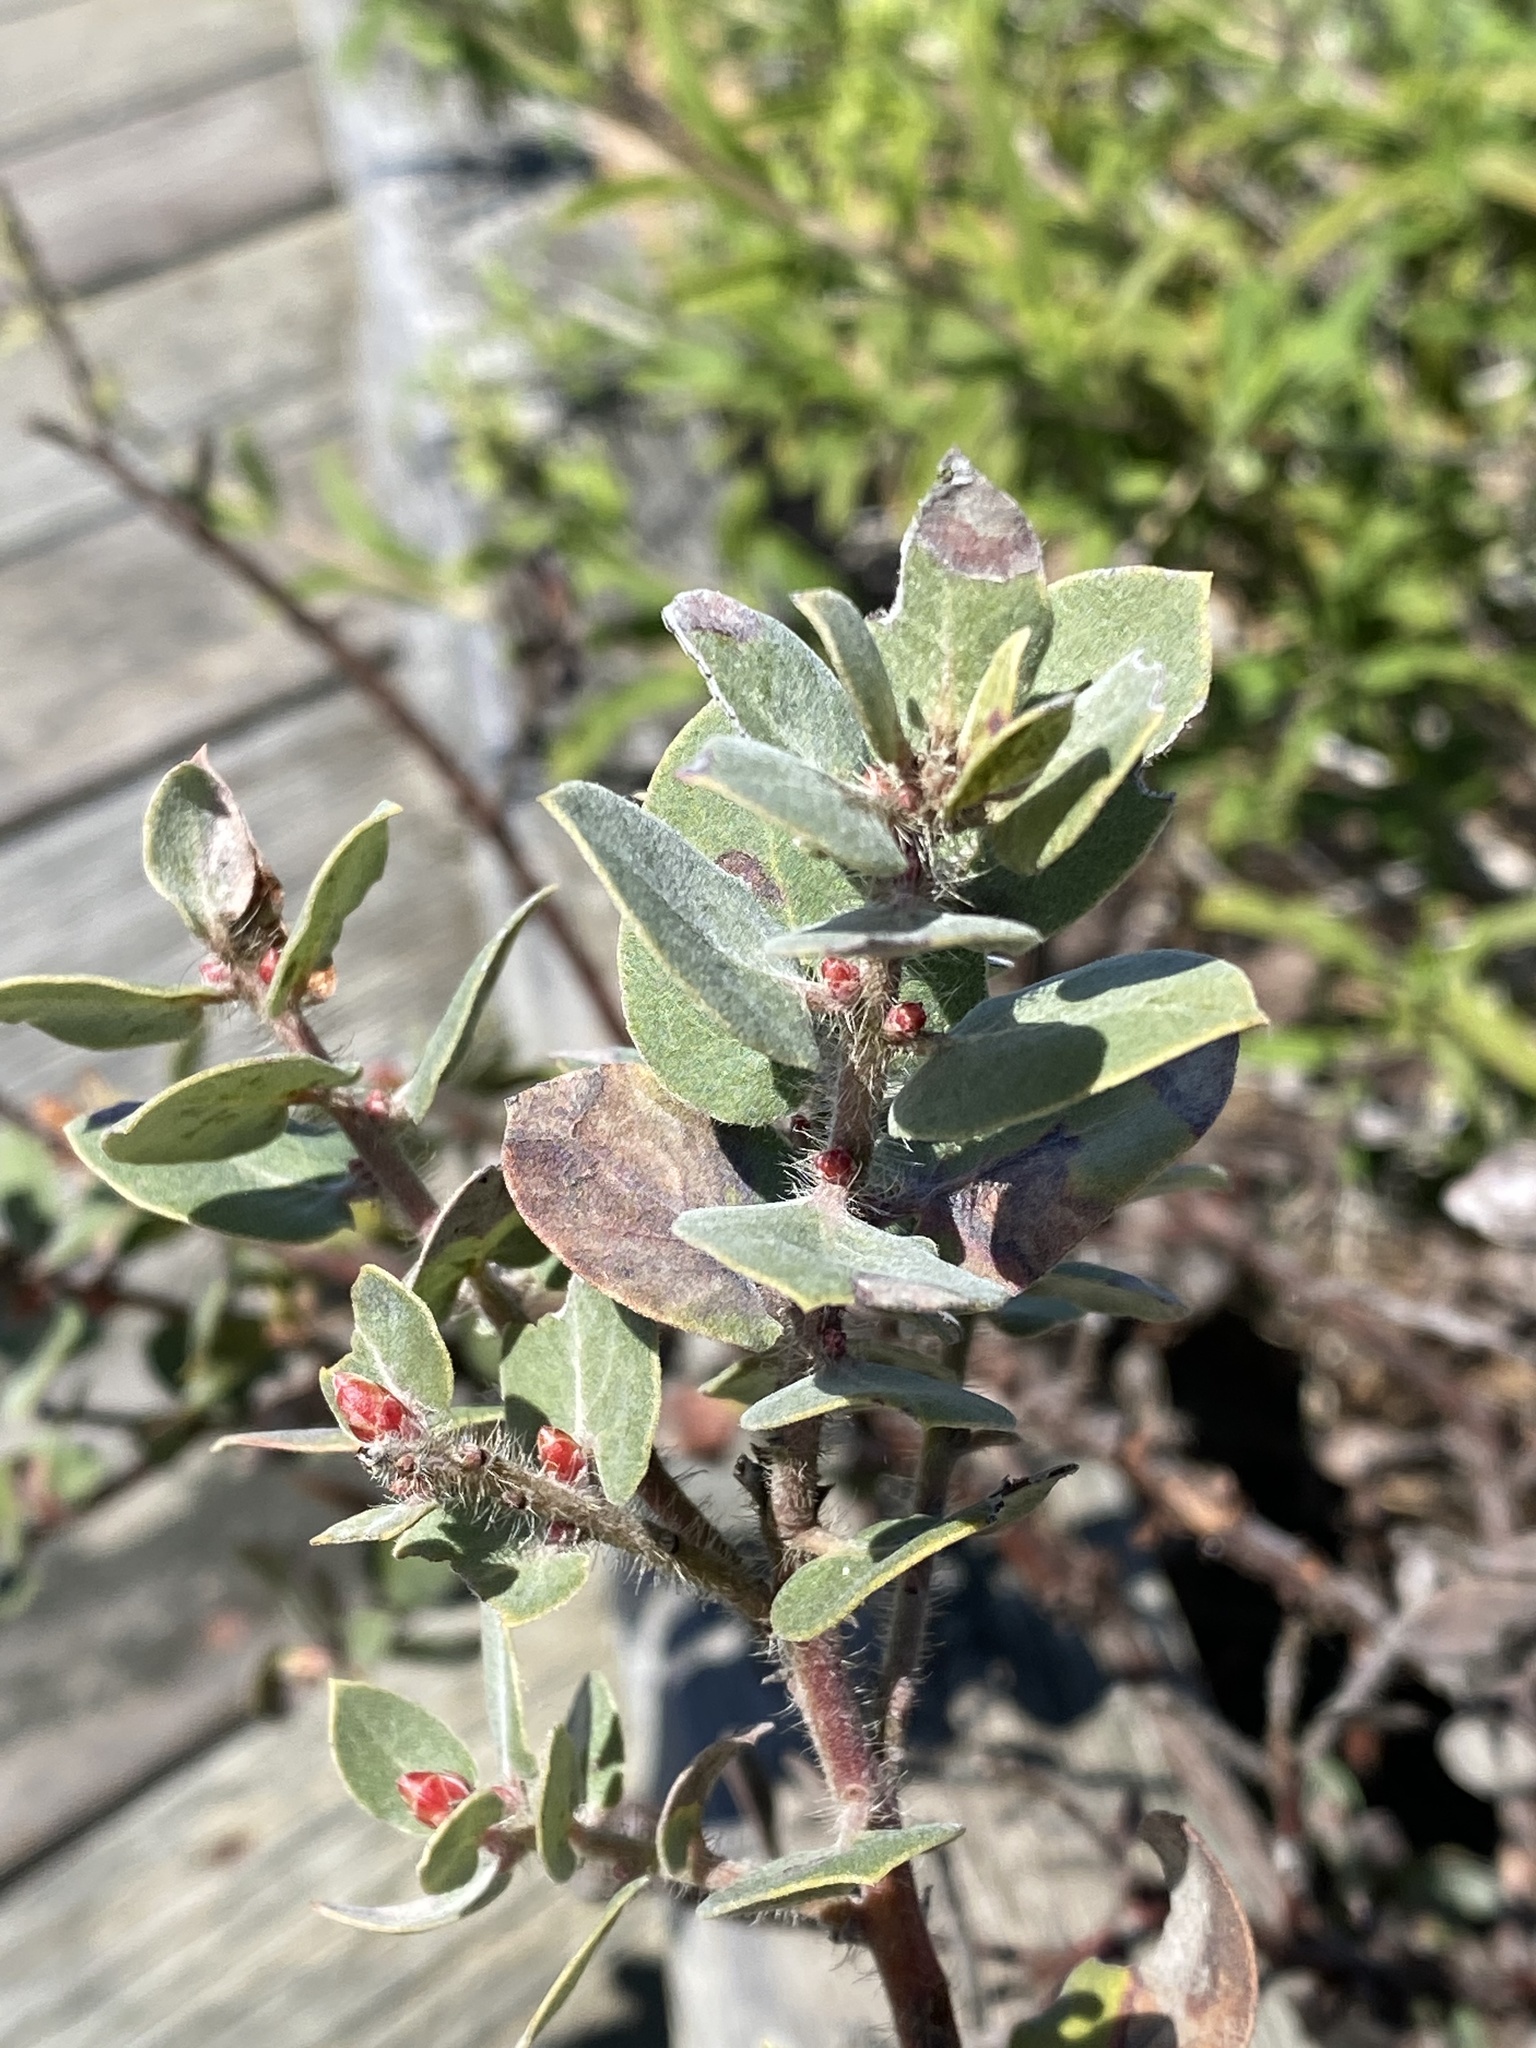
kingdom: Plantae
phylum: Tracheophyta
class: Magnoliopsida
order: Ericales
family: Ericaceae
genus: Arctostaphylos
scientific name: Arctostaphylos morroensis
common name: Morro manzanita
